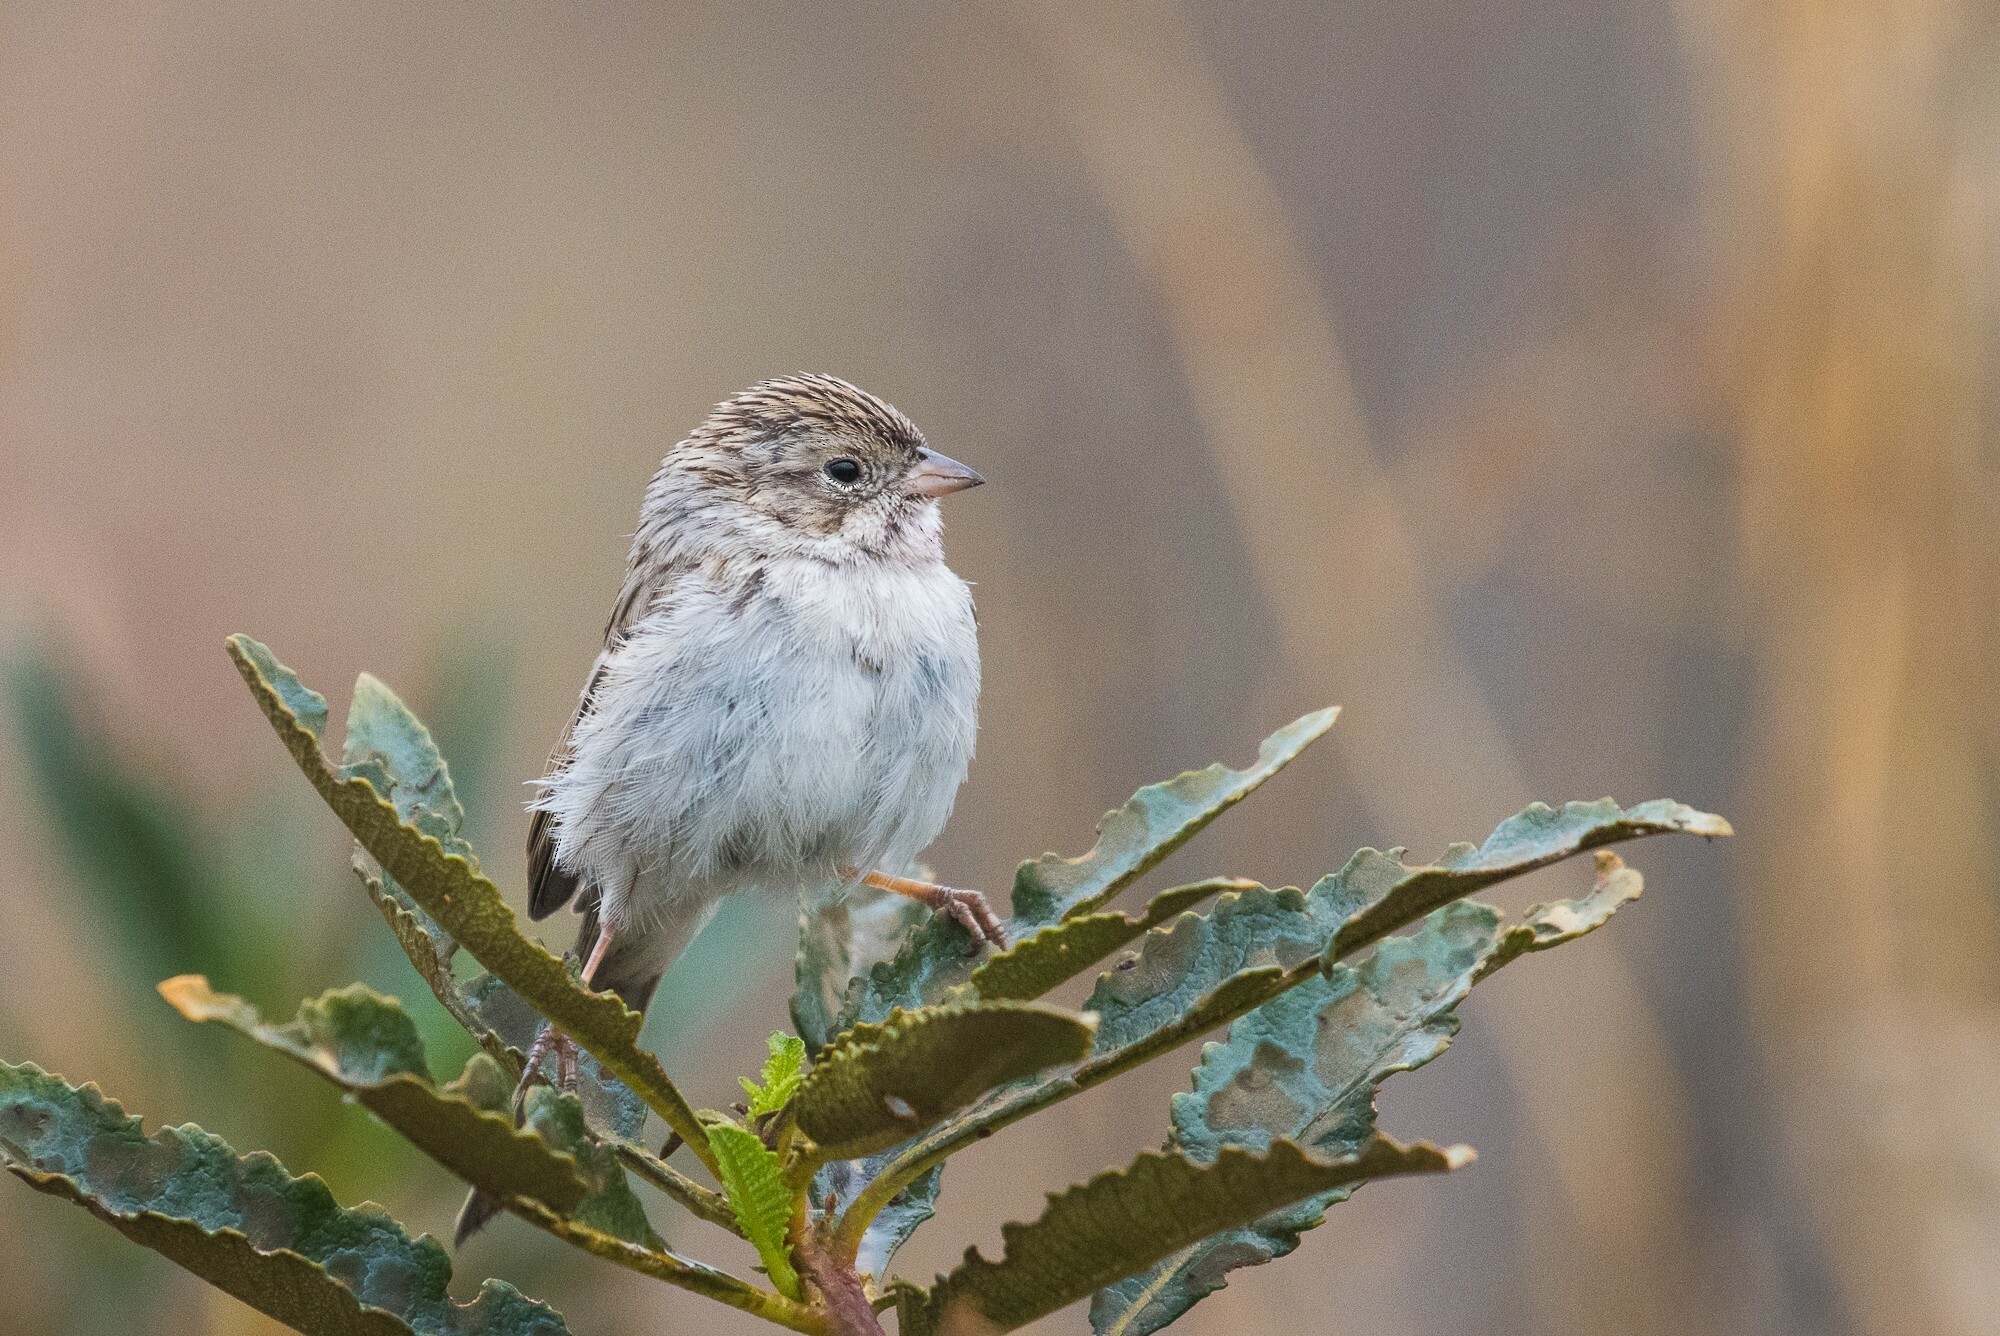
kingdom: Animalia
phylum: Chordata
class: Aves
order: Passeriformes
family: Passerellidae
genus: Spizella
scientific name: Spizella breweri
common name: Brewer's sparrow
